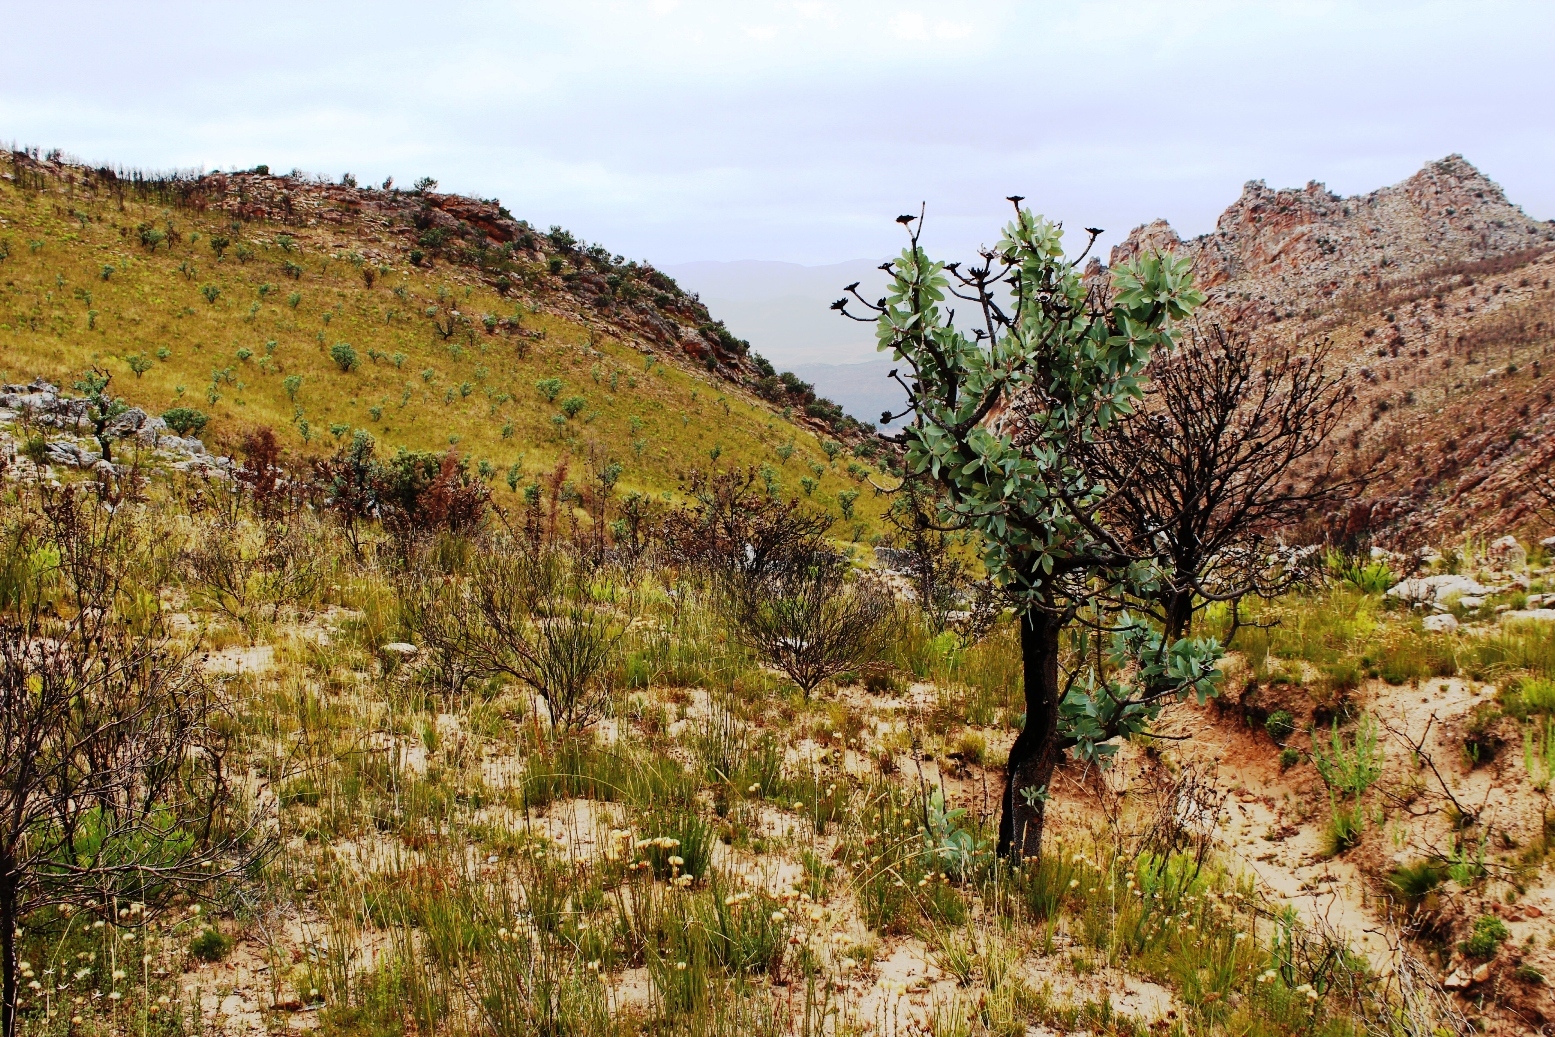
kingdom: Plantae
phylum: Tracheophyta
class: Magnoliopsida
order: Proteales
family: Proteaceae
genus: Protea
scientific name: Protea nitida
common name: Tree protea
